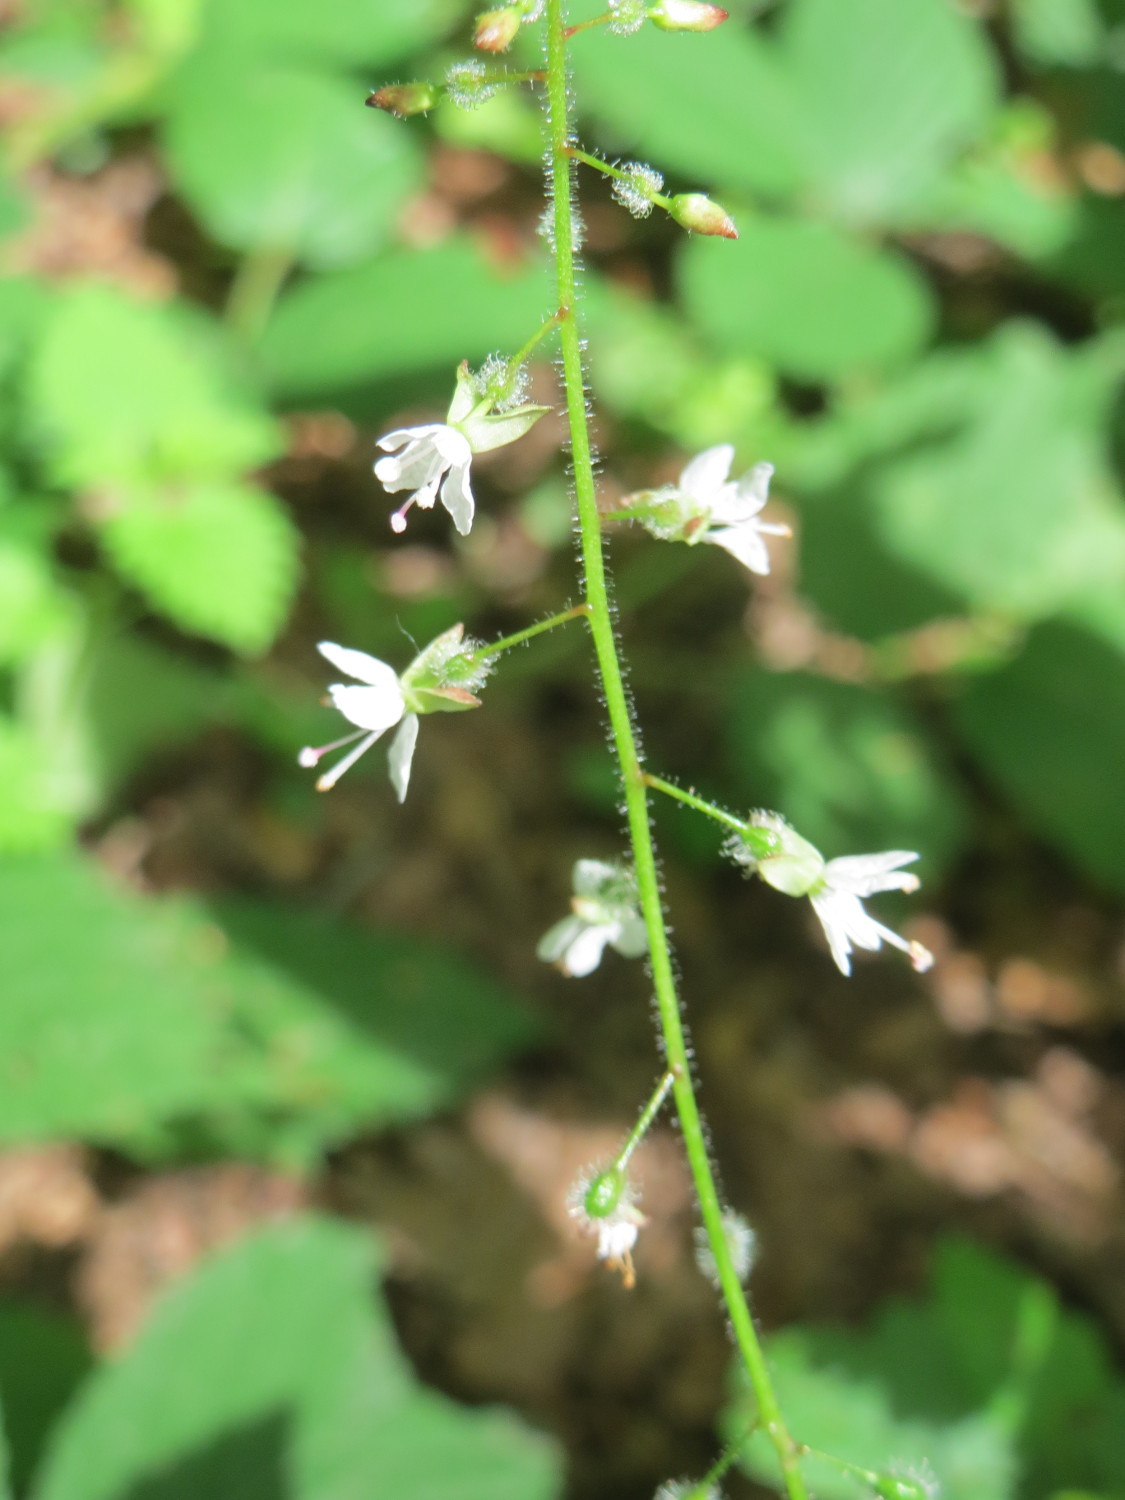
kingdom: Plantae
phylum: Tracheophyta
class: Magnoliopsida
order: Myrtales
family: Onagraceae
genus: Circaea
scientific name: Circaea lutetiana
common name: Enchanter's-nightshade
